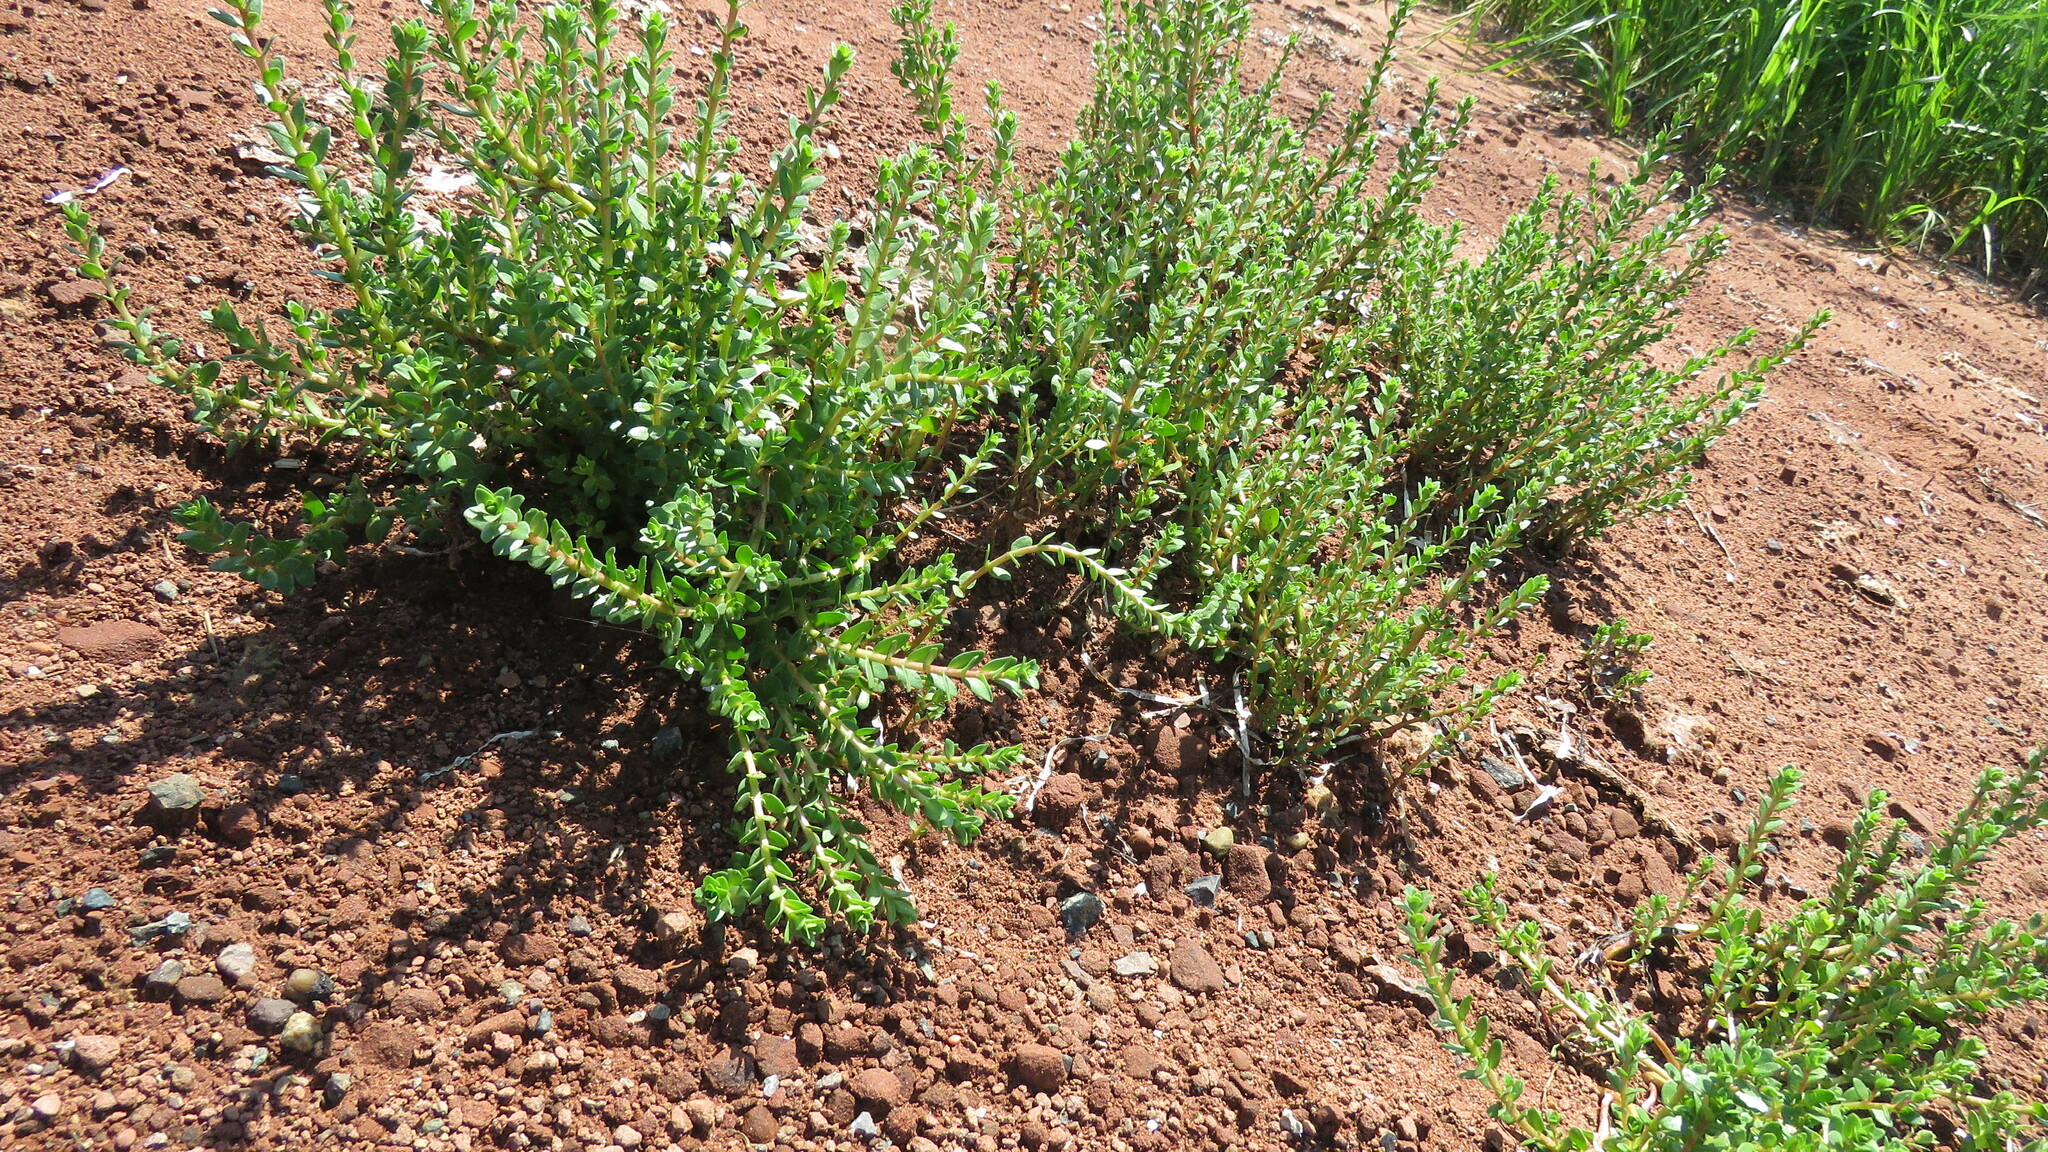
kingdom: Plantae
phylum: Tracheophyta
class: Magnoliopsida
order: Ericales
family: Primulaceae
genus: Lysimachia
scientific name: Lysimachia maritima
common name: Sea milkwort
